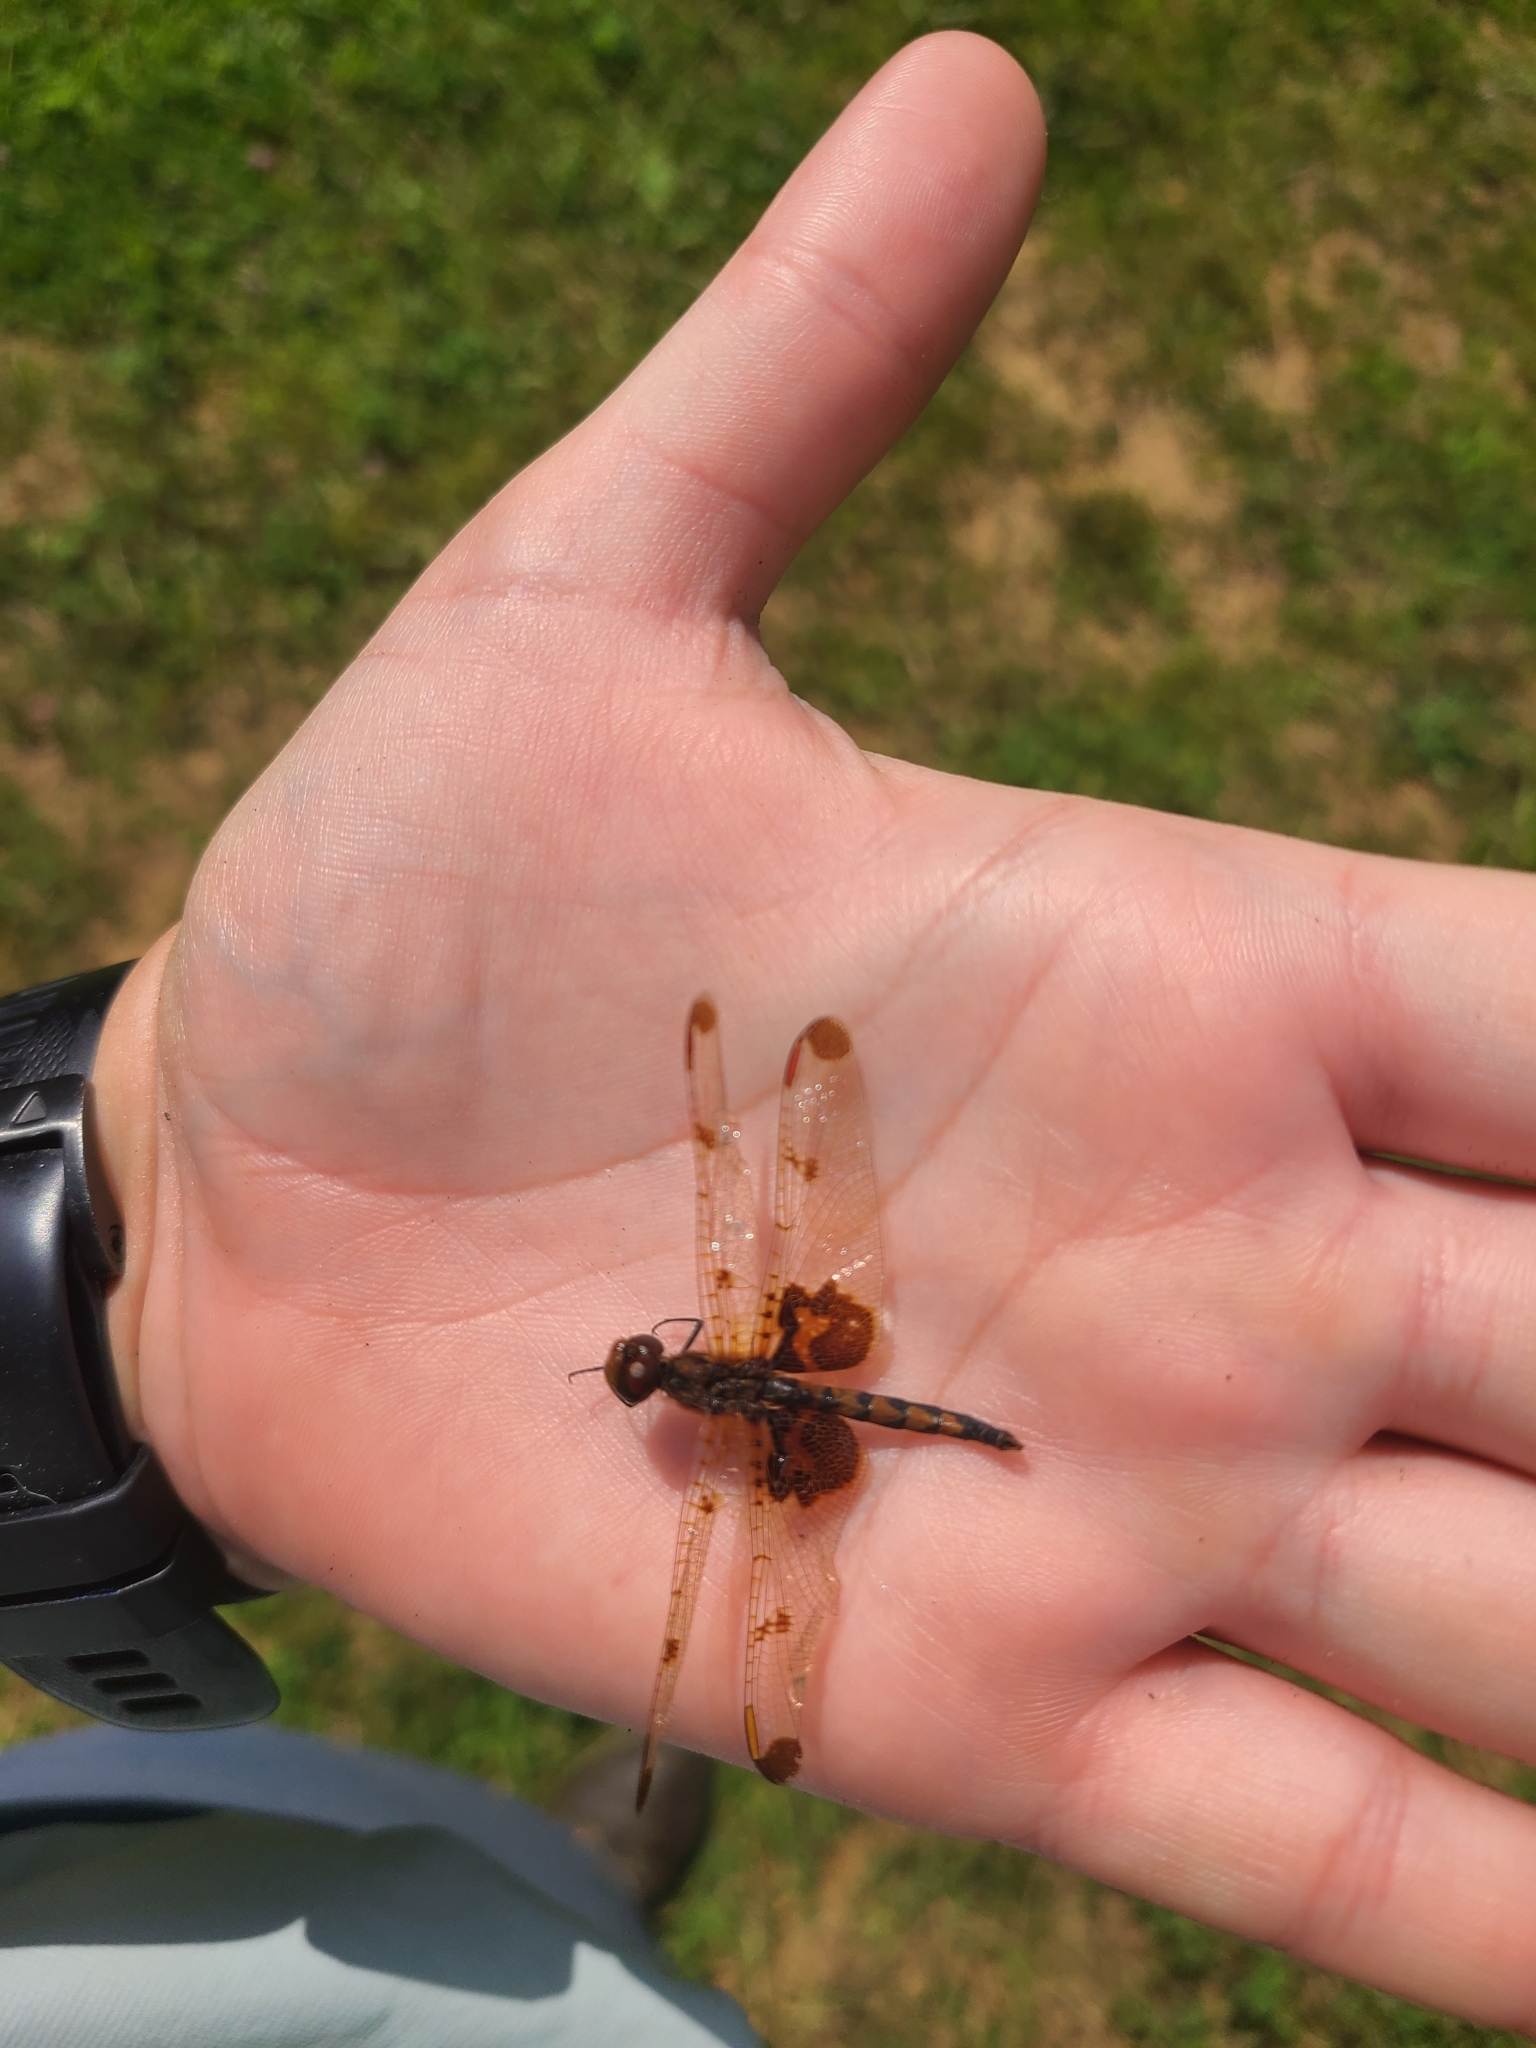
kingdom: Animalia
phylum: Arthropoda
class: Insecta
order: Odonata
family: Libellulidae
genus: Celithemis
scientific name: Celithemis elisa
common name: Calico pennant
